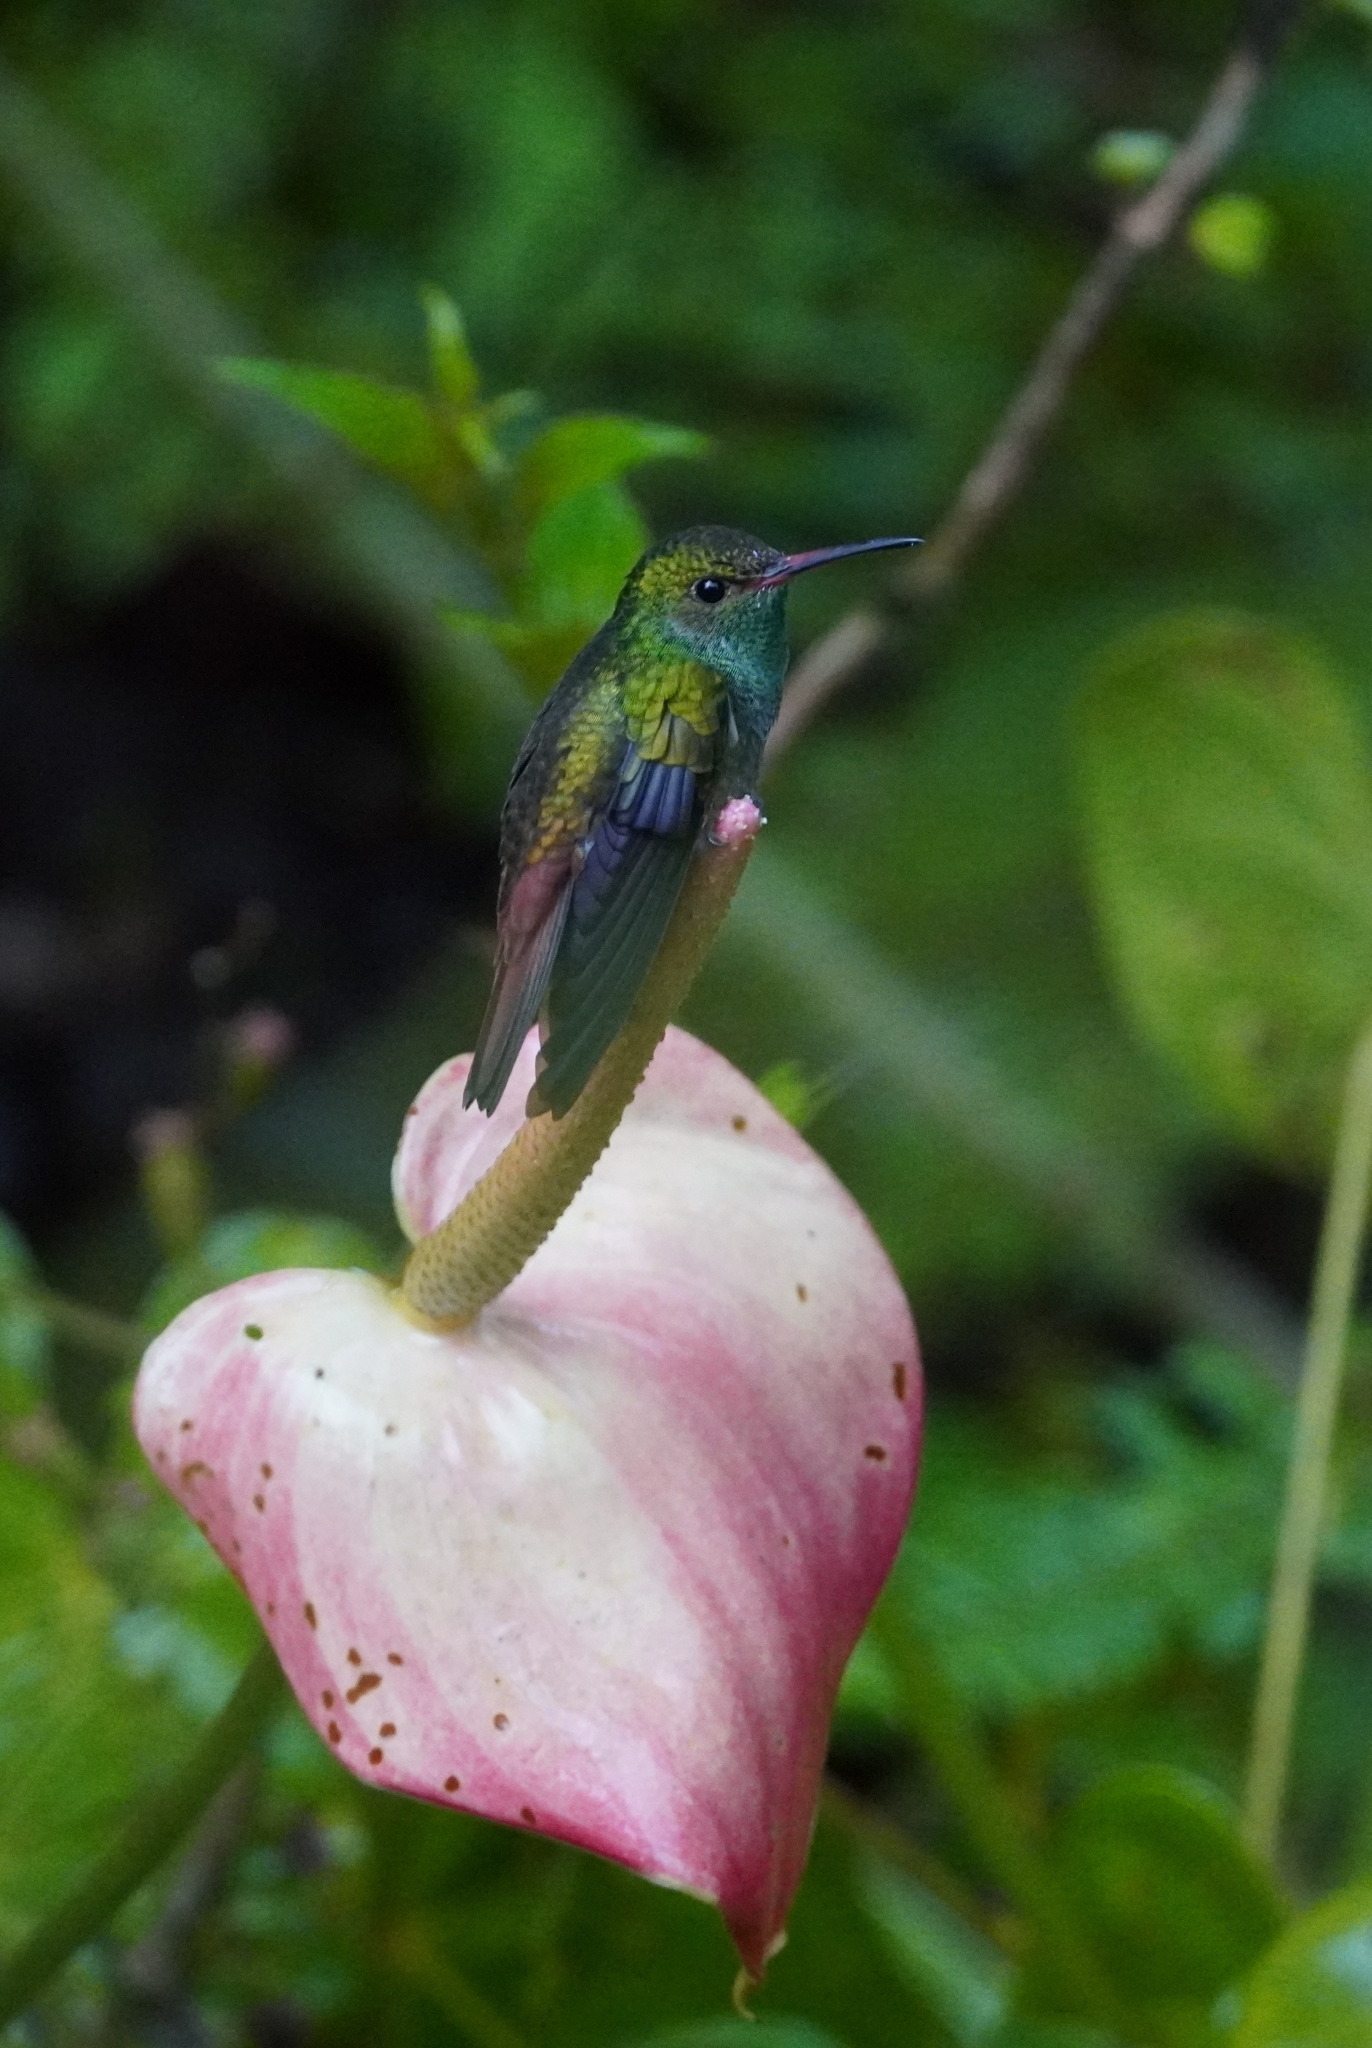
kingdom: Animalia
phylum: Chordata
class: Aves
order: Apodiformes
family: Trochilidae
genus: Amazilia
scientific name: Amazilia tzacatl
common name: Rufous-tailed hummingbird
